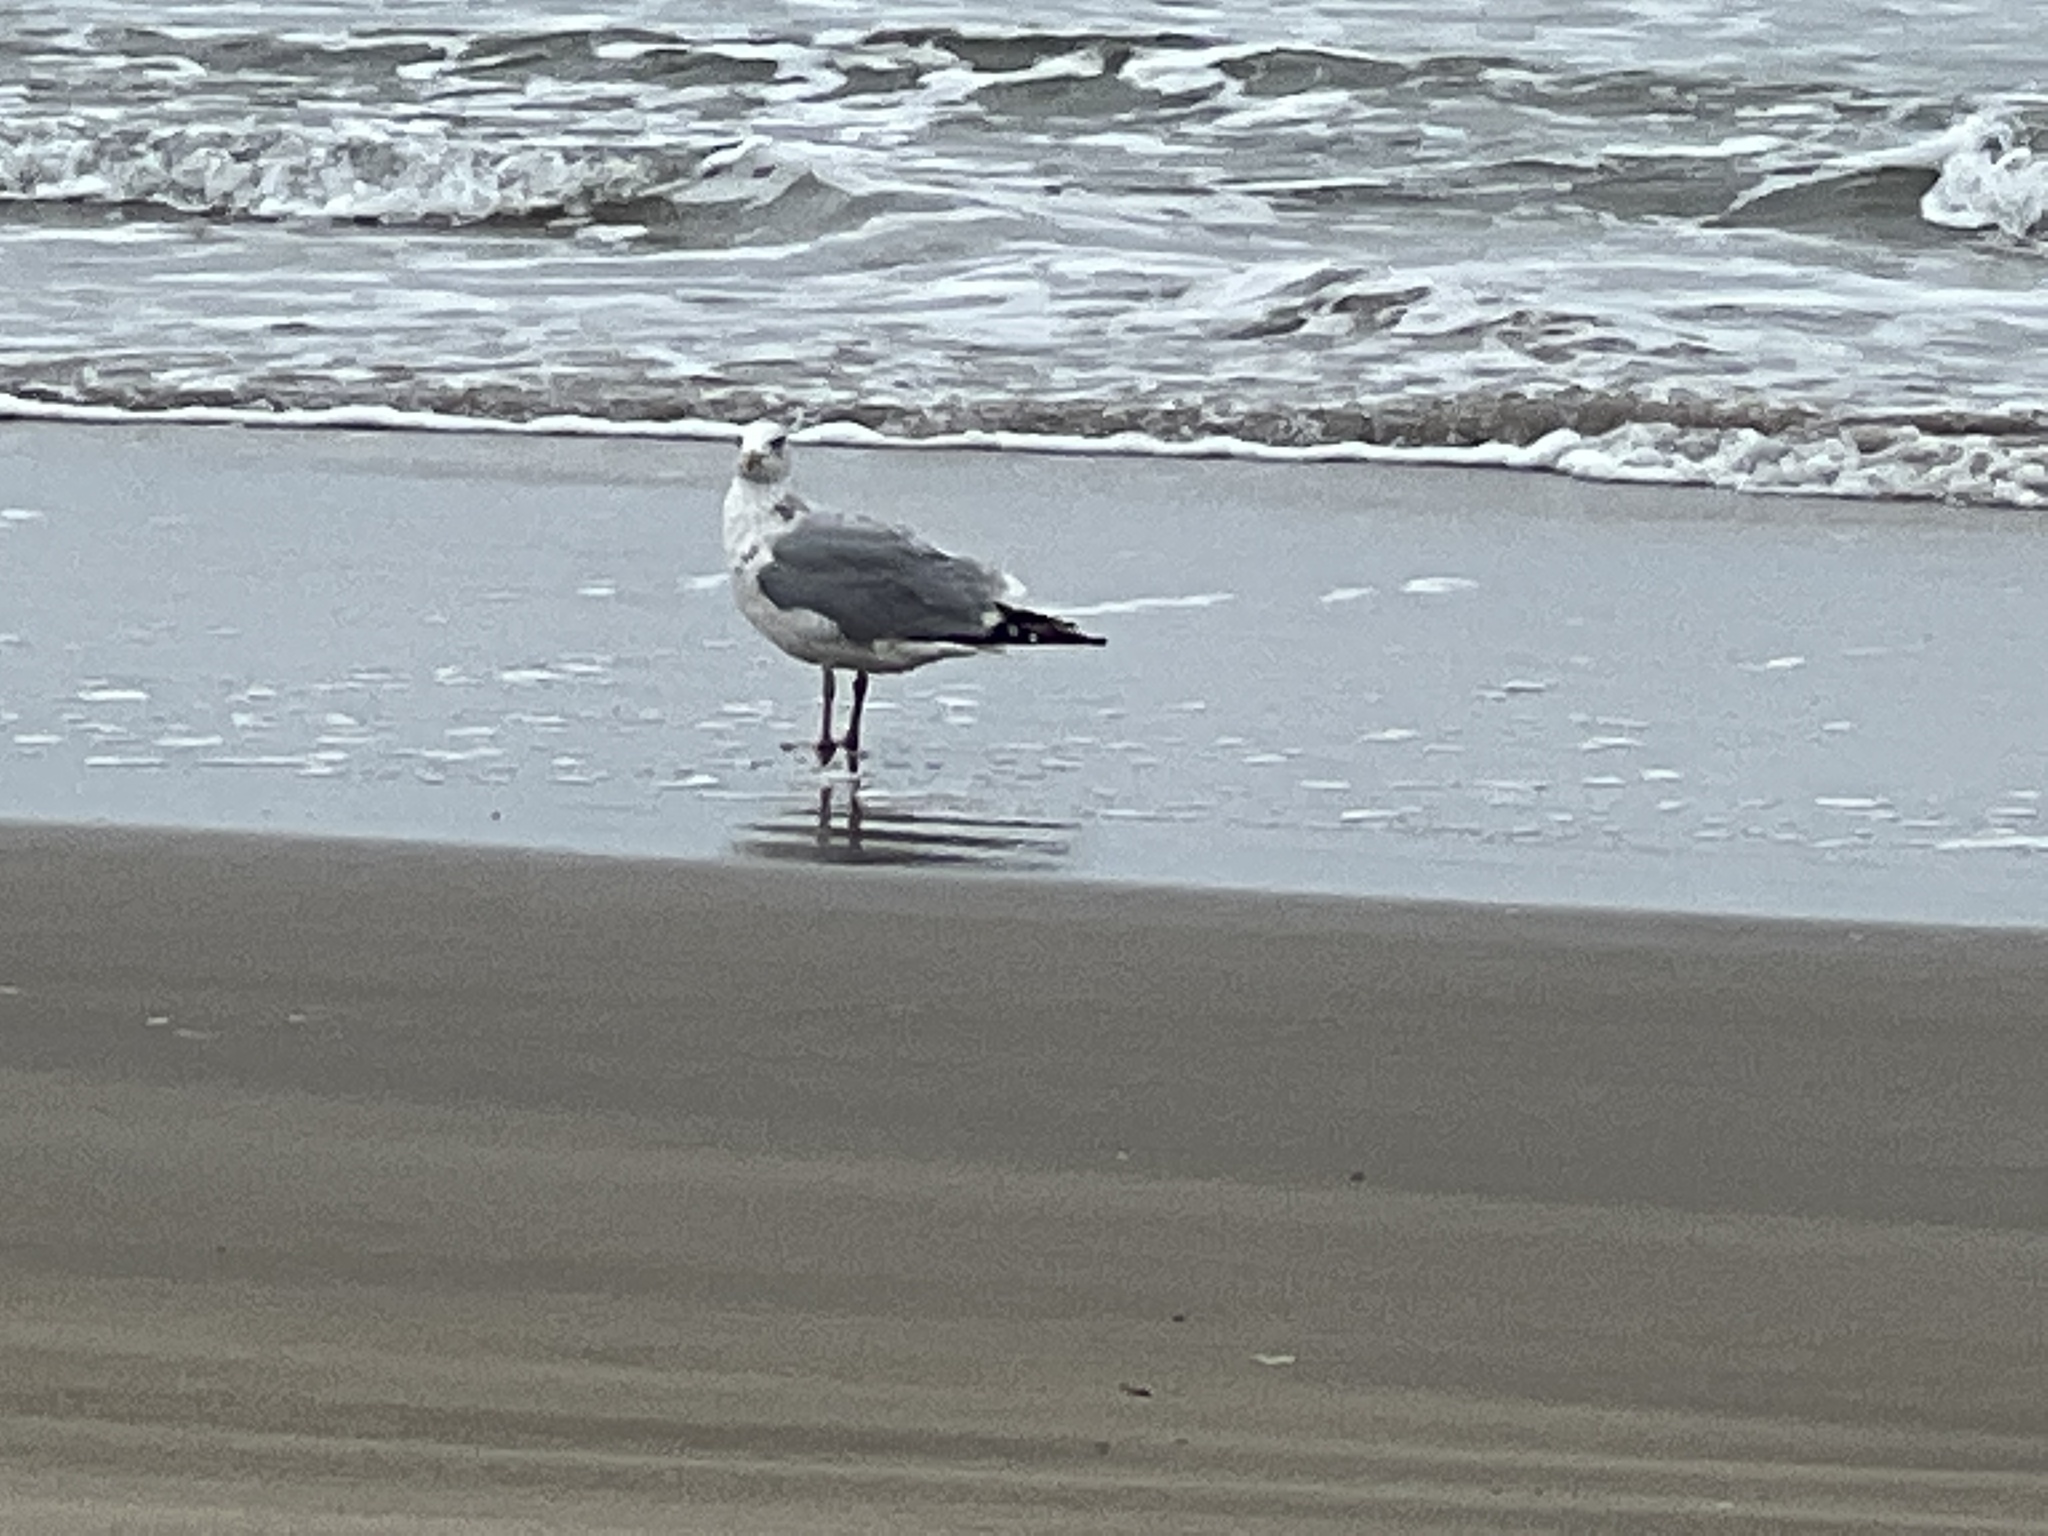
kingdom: Animalia
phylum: Chordata
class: Aves
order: Charadriiformes
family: Laridae
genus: Larus
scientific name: Larus argentatus
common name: Herring gull
